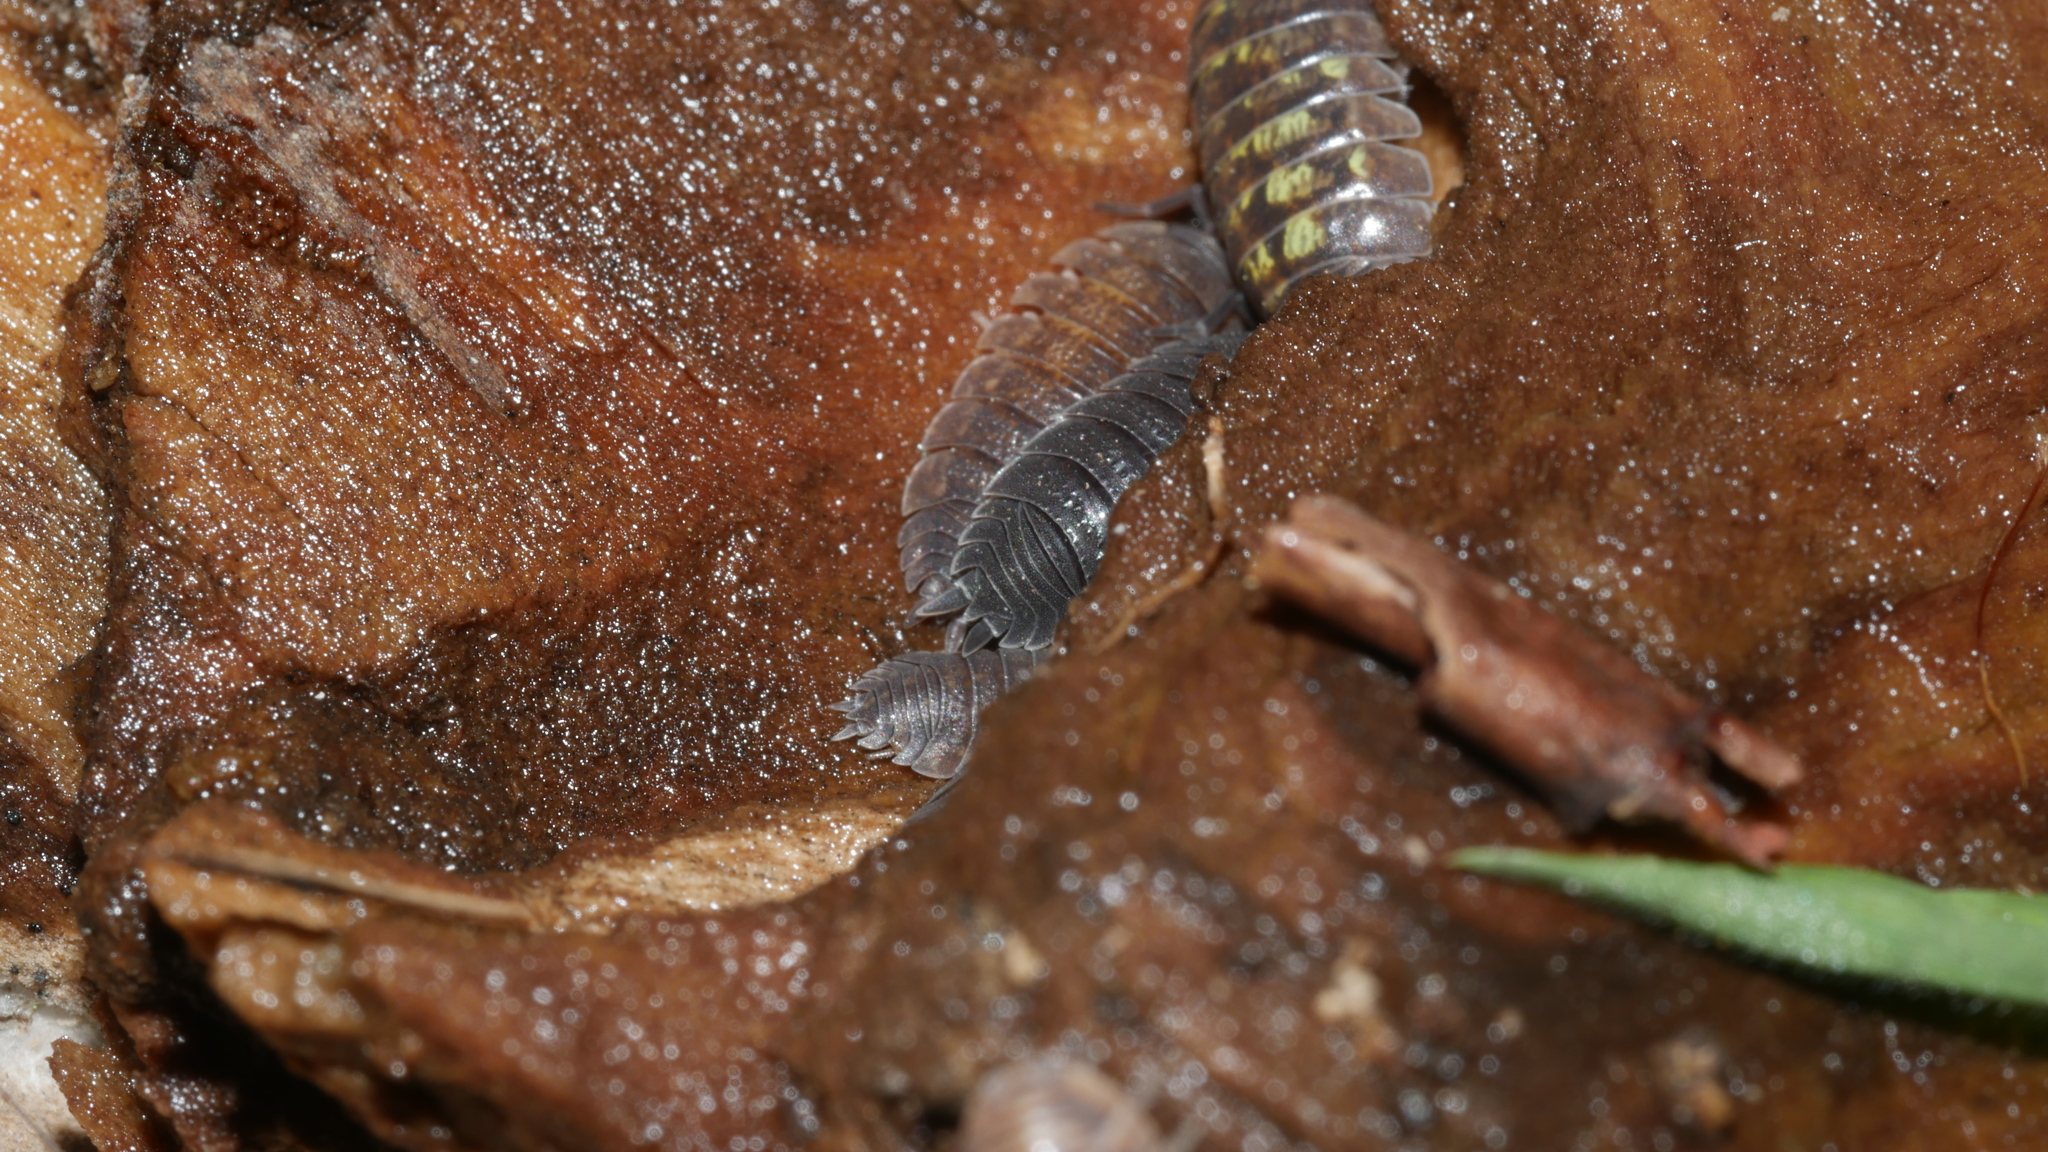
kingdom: Animalia
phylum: Arthropoda
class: Malacostraca
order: Isopoda
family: Porcellionidae
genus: Porcellio
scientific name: Porcellio scaber
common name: Common rough woodlouse
